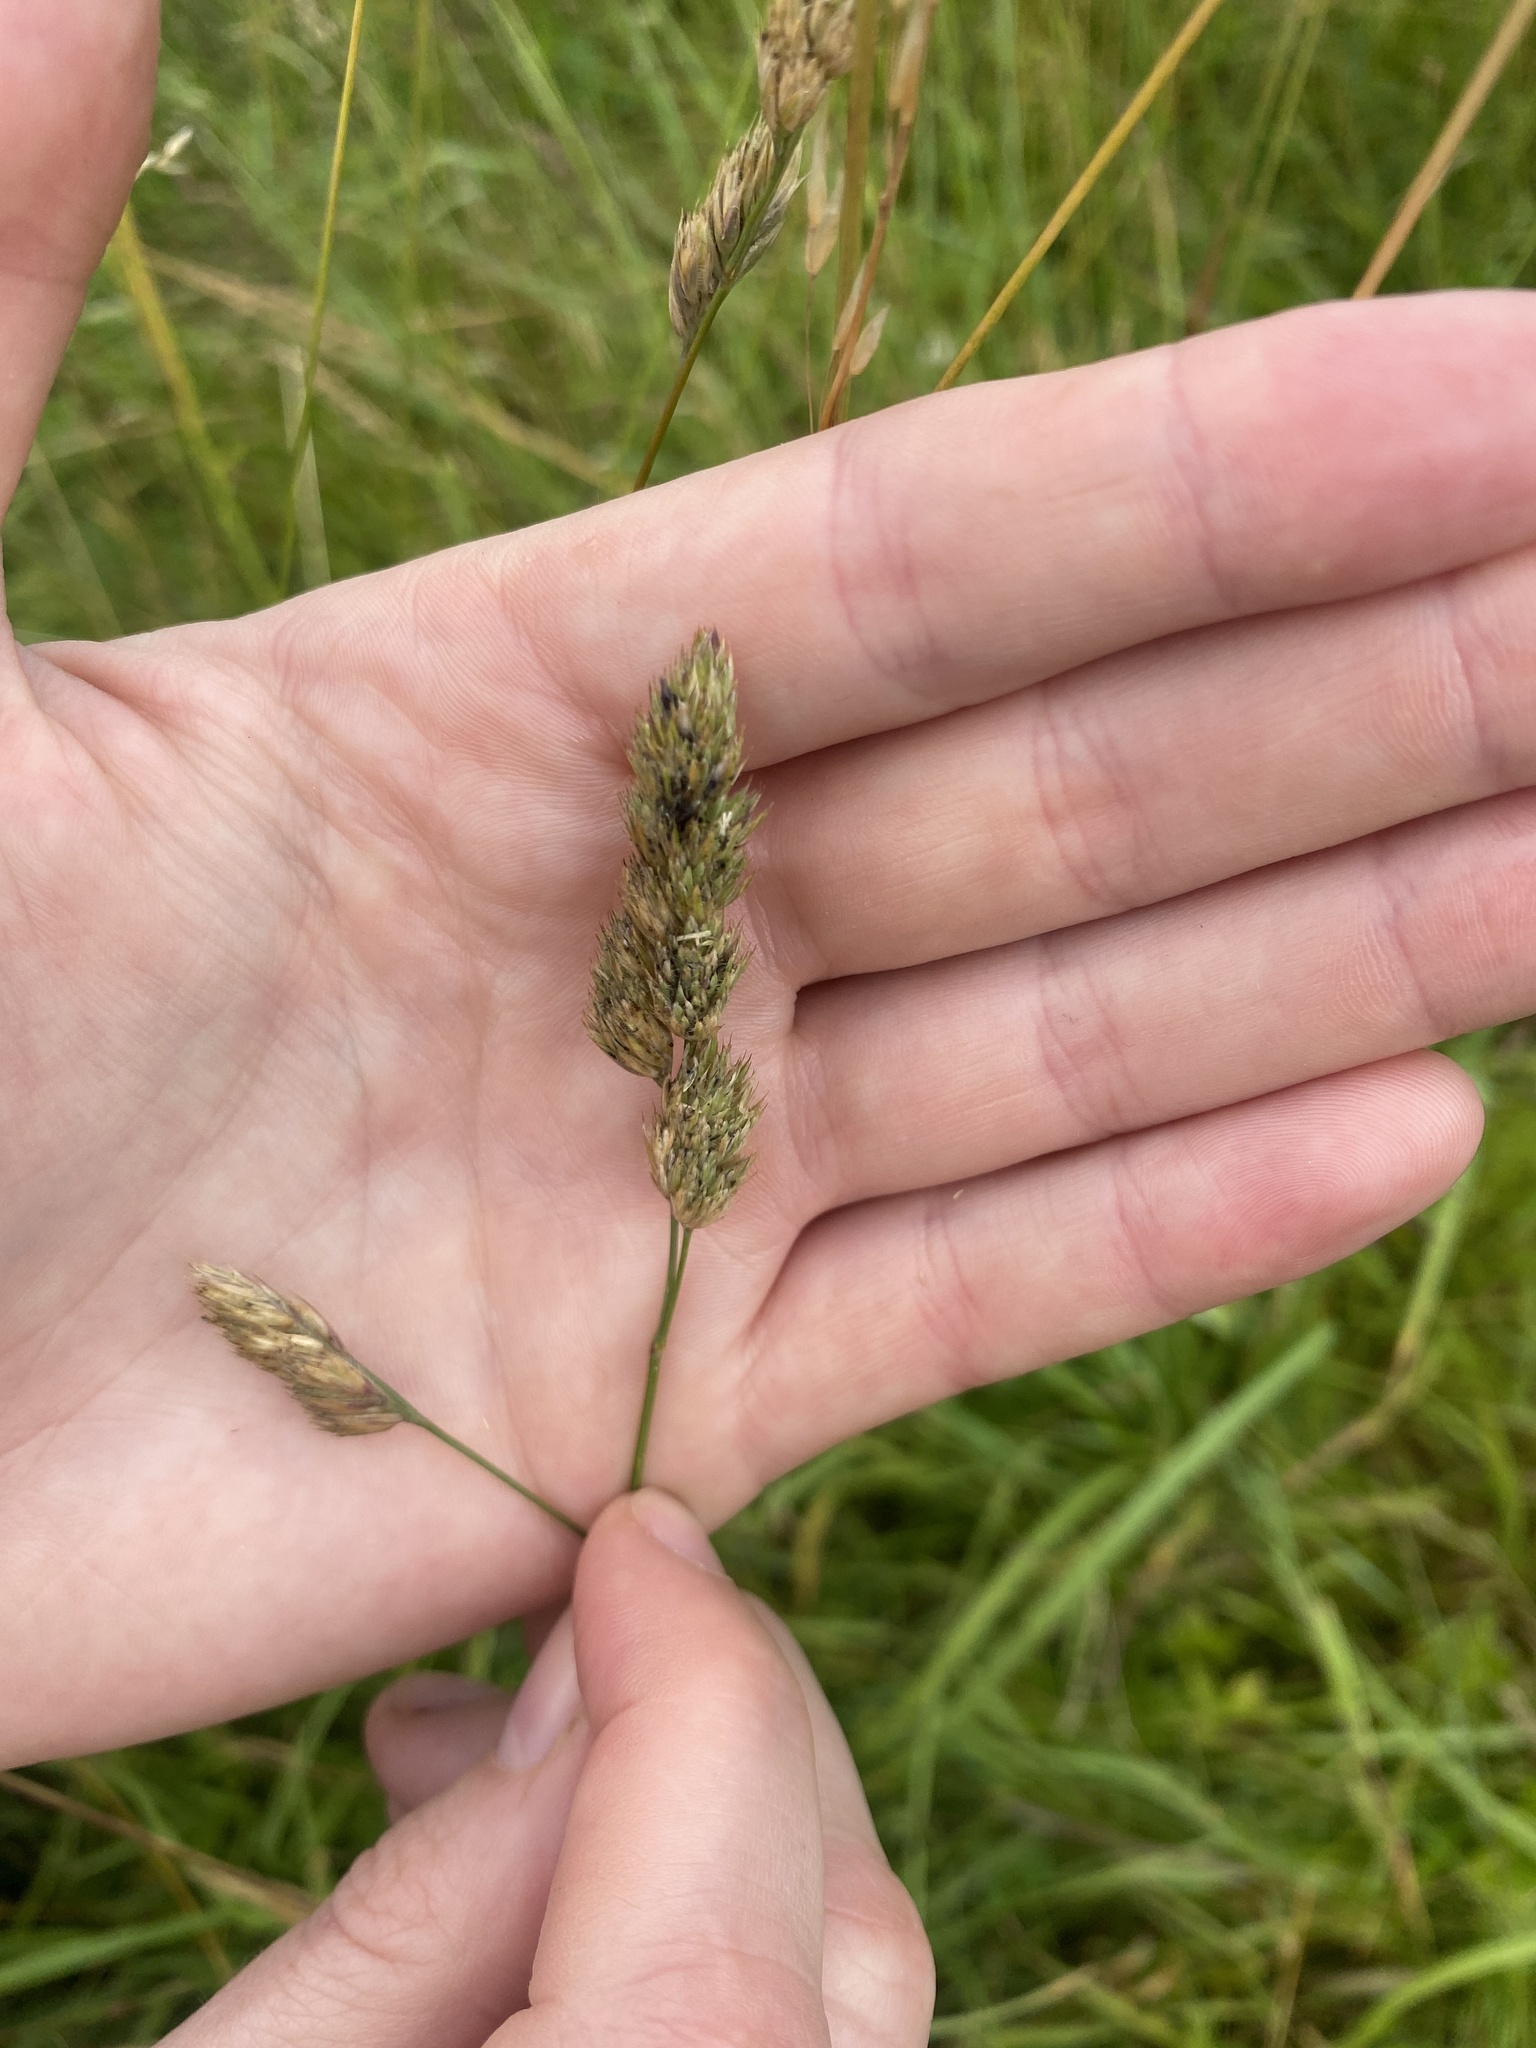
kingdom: Plantae
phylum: Tracheophyta
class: Liliopsida
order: Poales
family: Poaceae
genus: Dactylis
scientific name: Dactylis glomerata
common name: Orchardgrass
